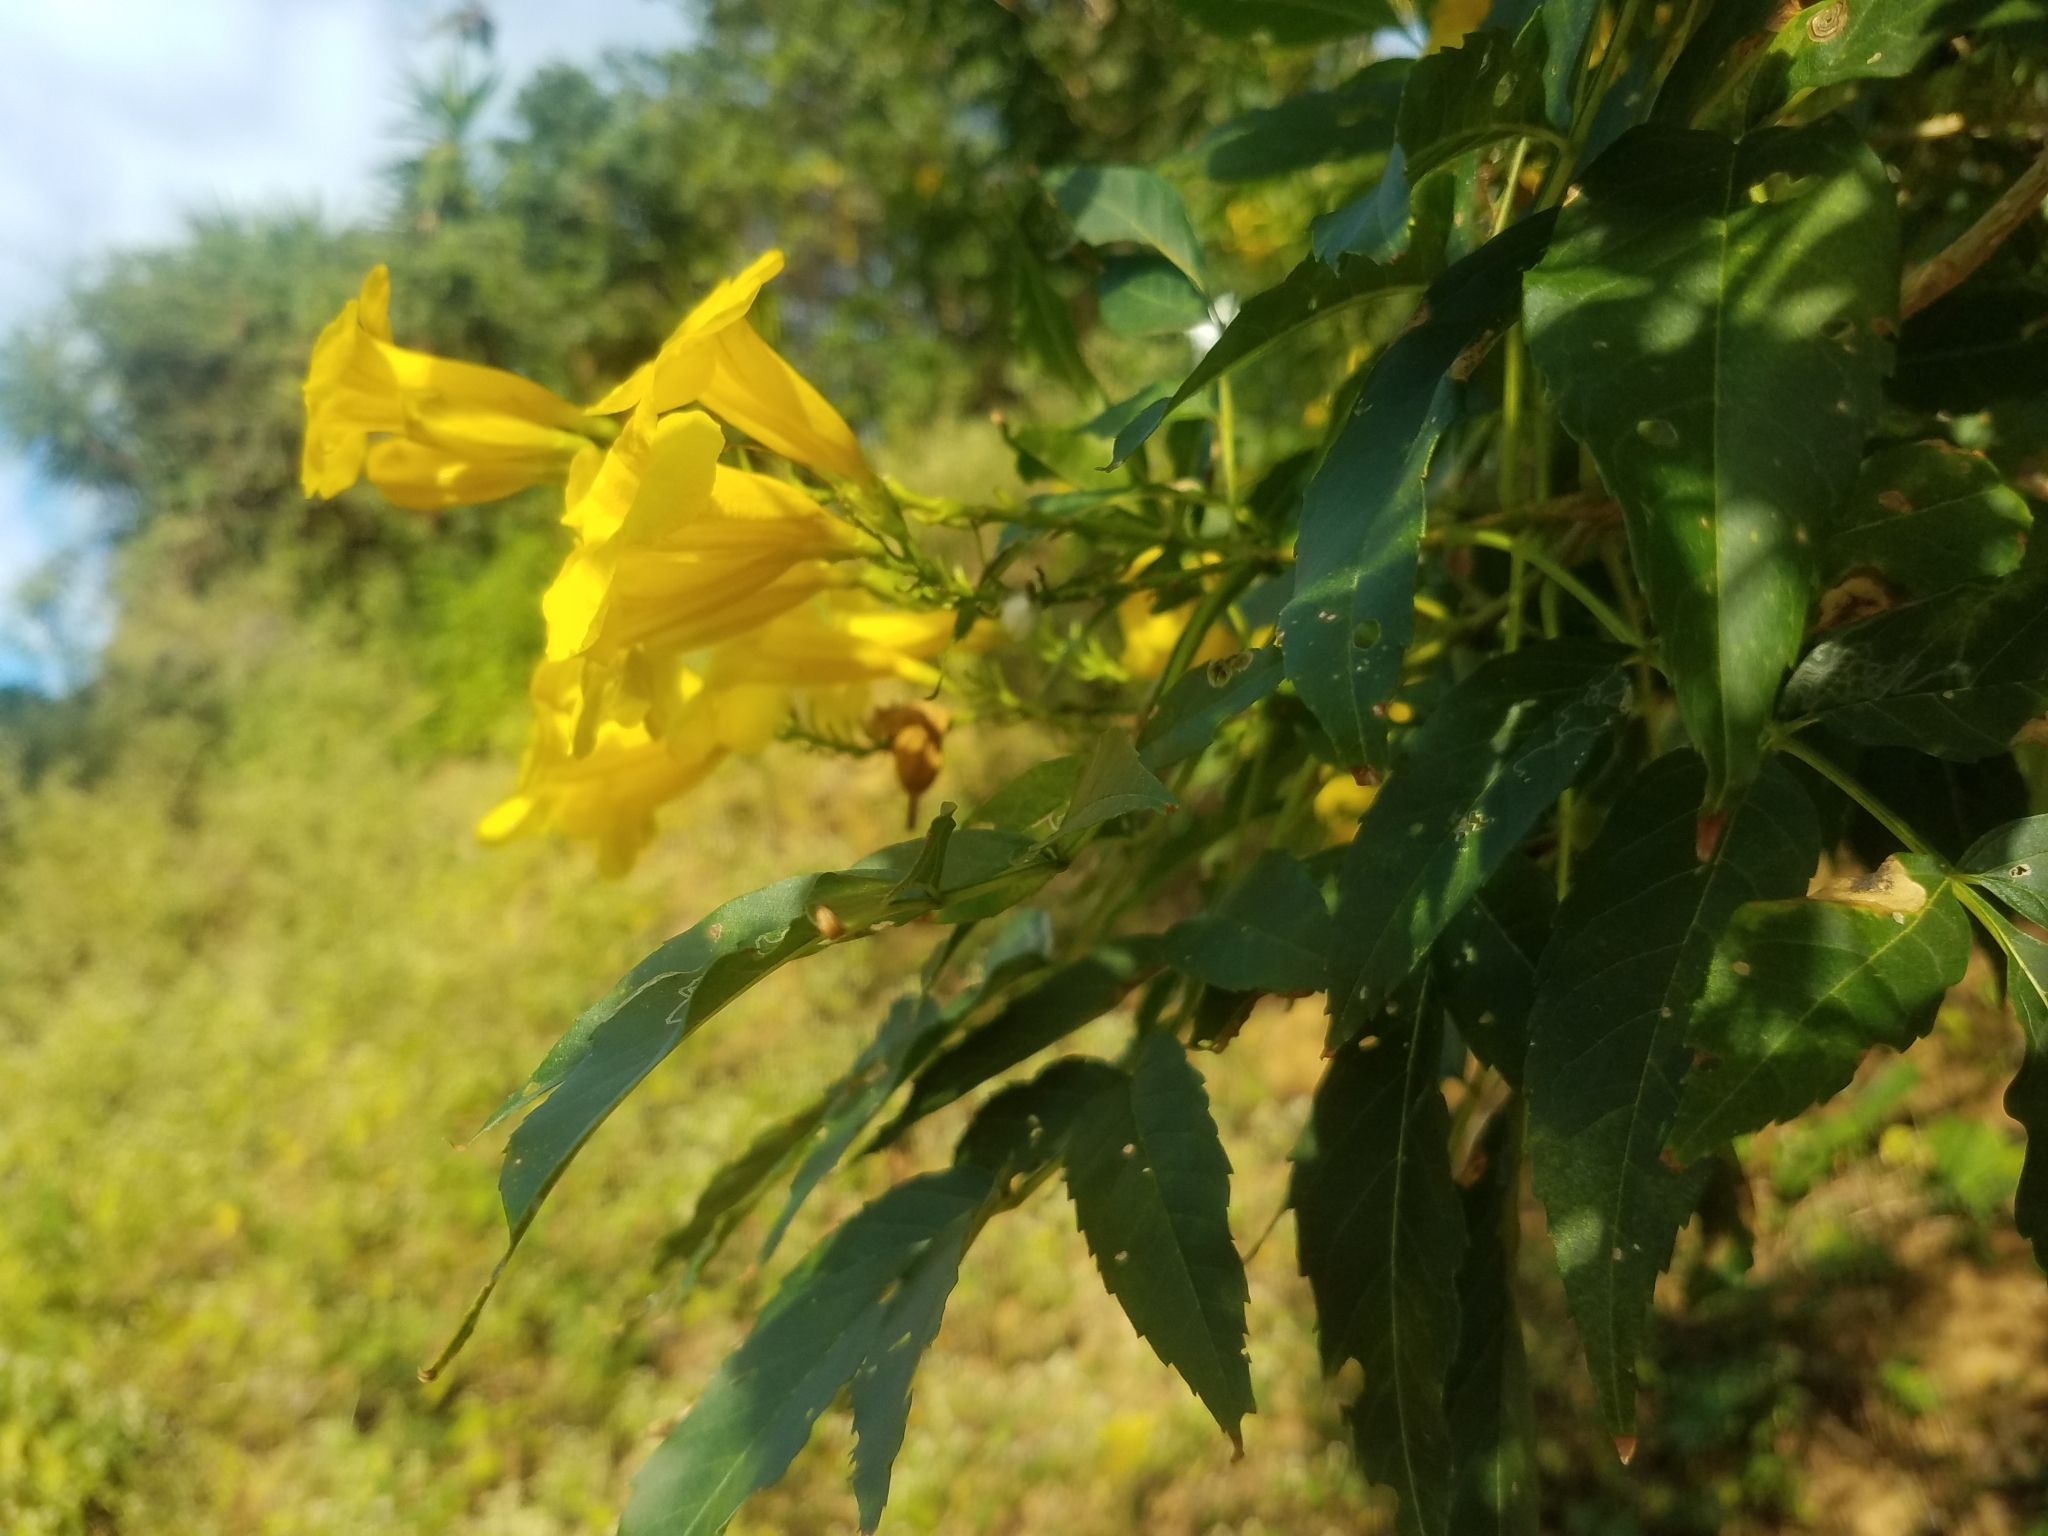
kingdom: Plantae
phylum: Tracheophyta
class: Magnoliopsida
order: Lamiales
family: Bignoniaceae
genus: Tecoma
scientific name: Tecoma stans
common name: Yellow trumpetbush
